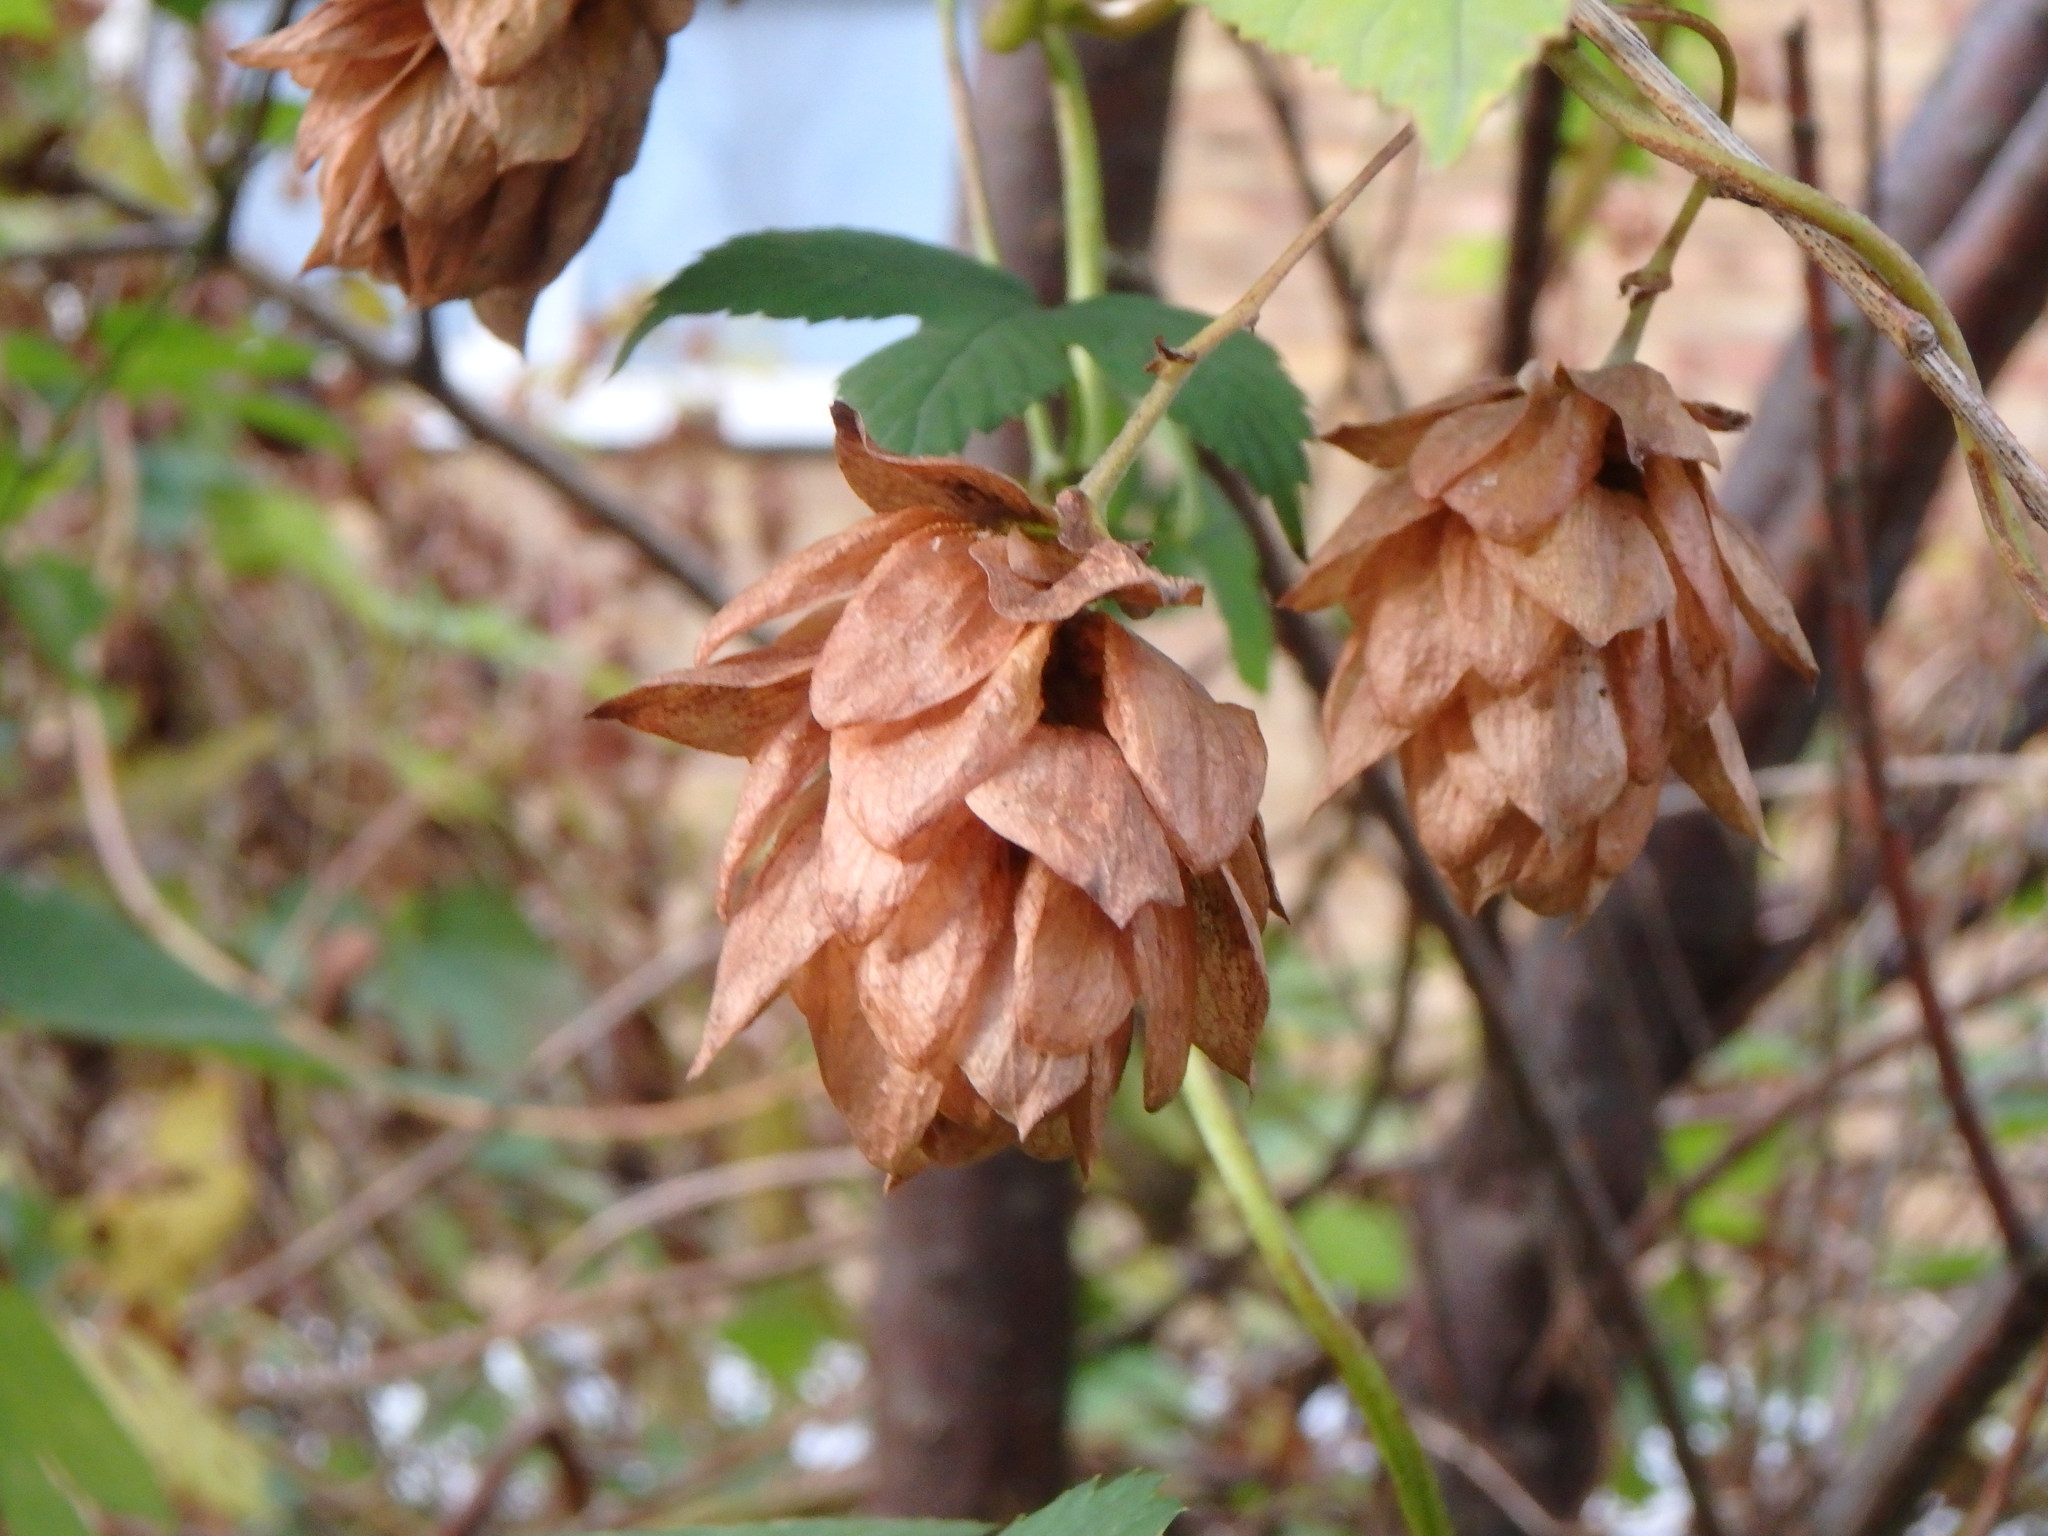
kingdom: Plantae
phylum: Tracheophyta
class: Magnoliopsida
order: Rosales
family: Cannabaceae
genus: Humulus
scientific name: Humulus lupulus
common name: Hop
